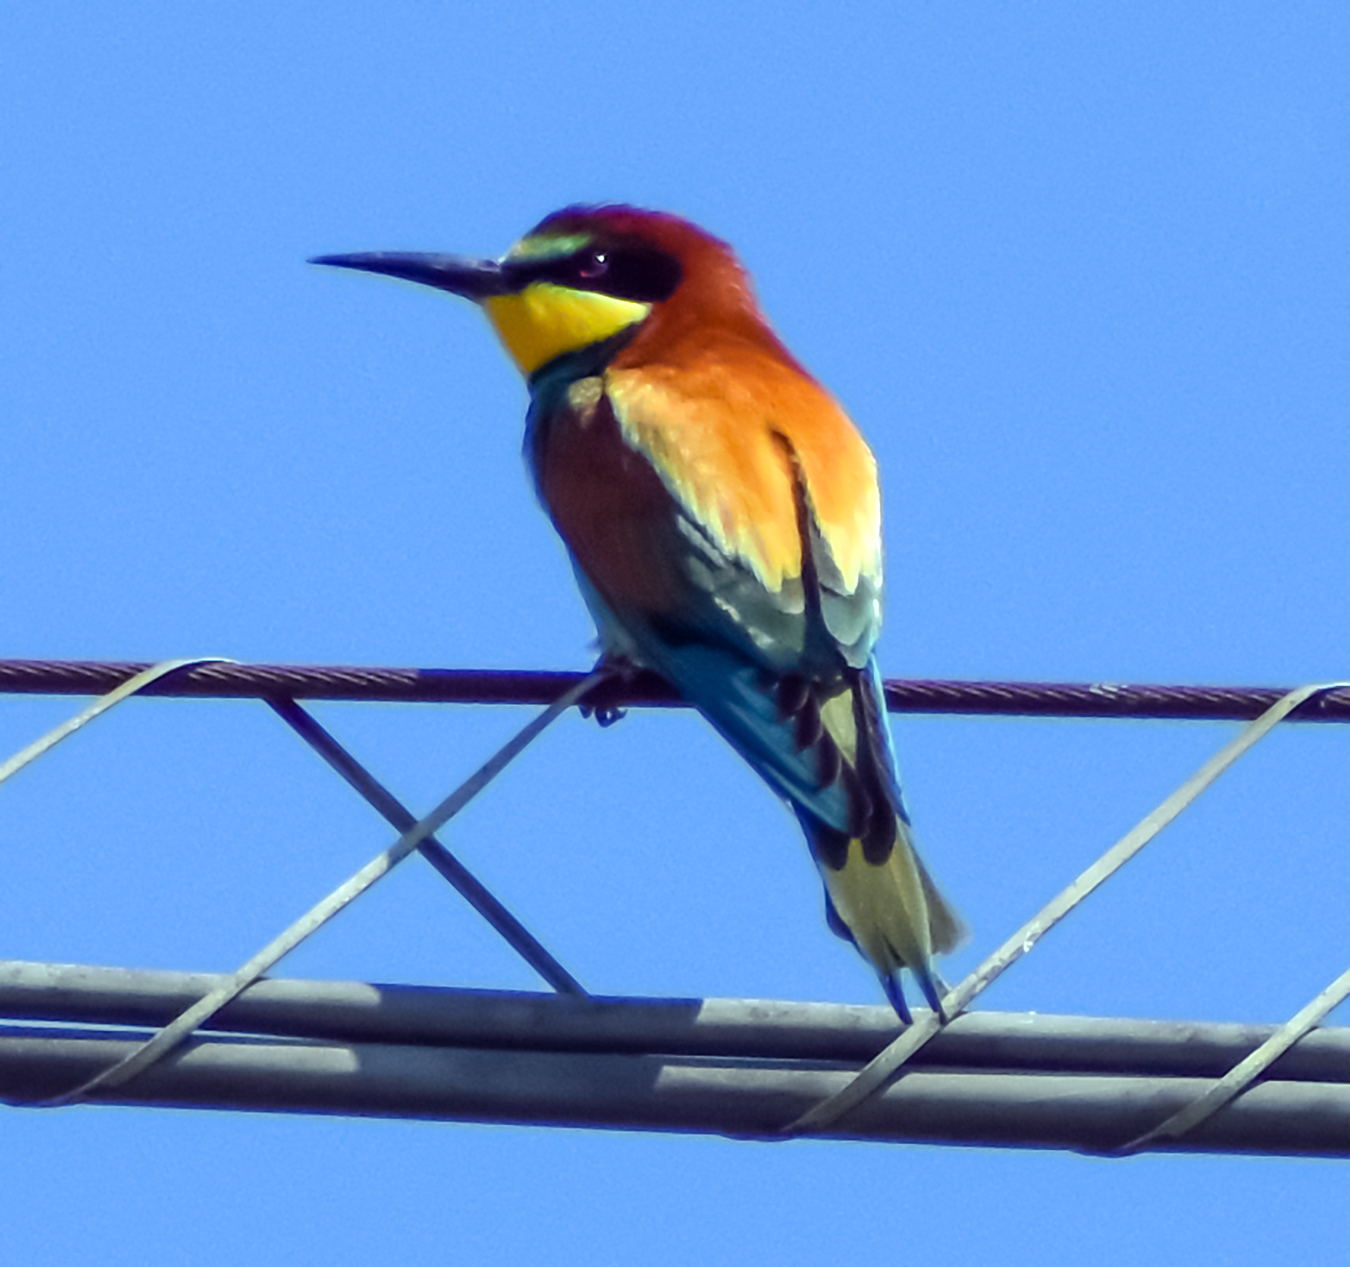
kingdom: Animalia
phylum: Chordata
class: Aves
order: Coraciiformes
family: Meropidae
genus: Merops
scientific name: Merops apiaster
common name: European bee-eater
